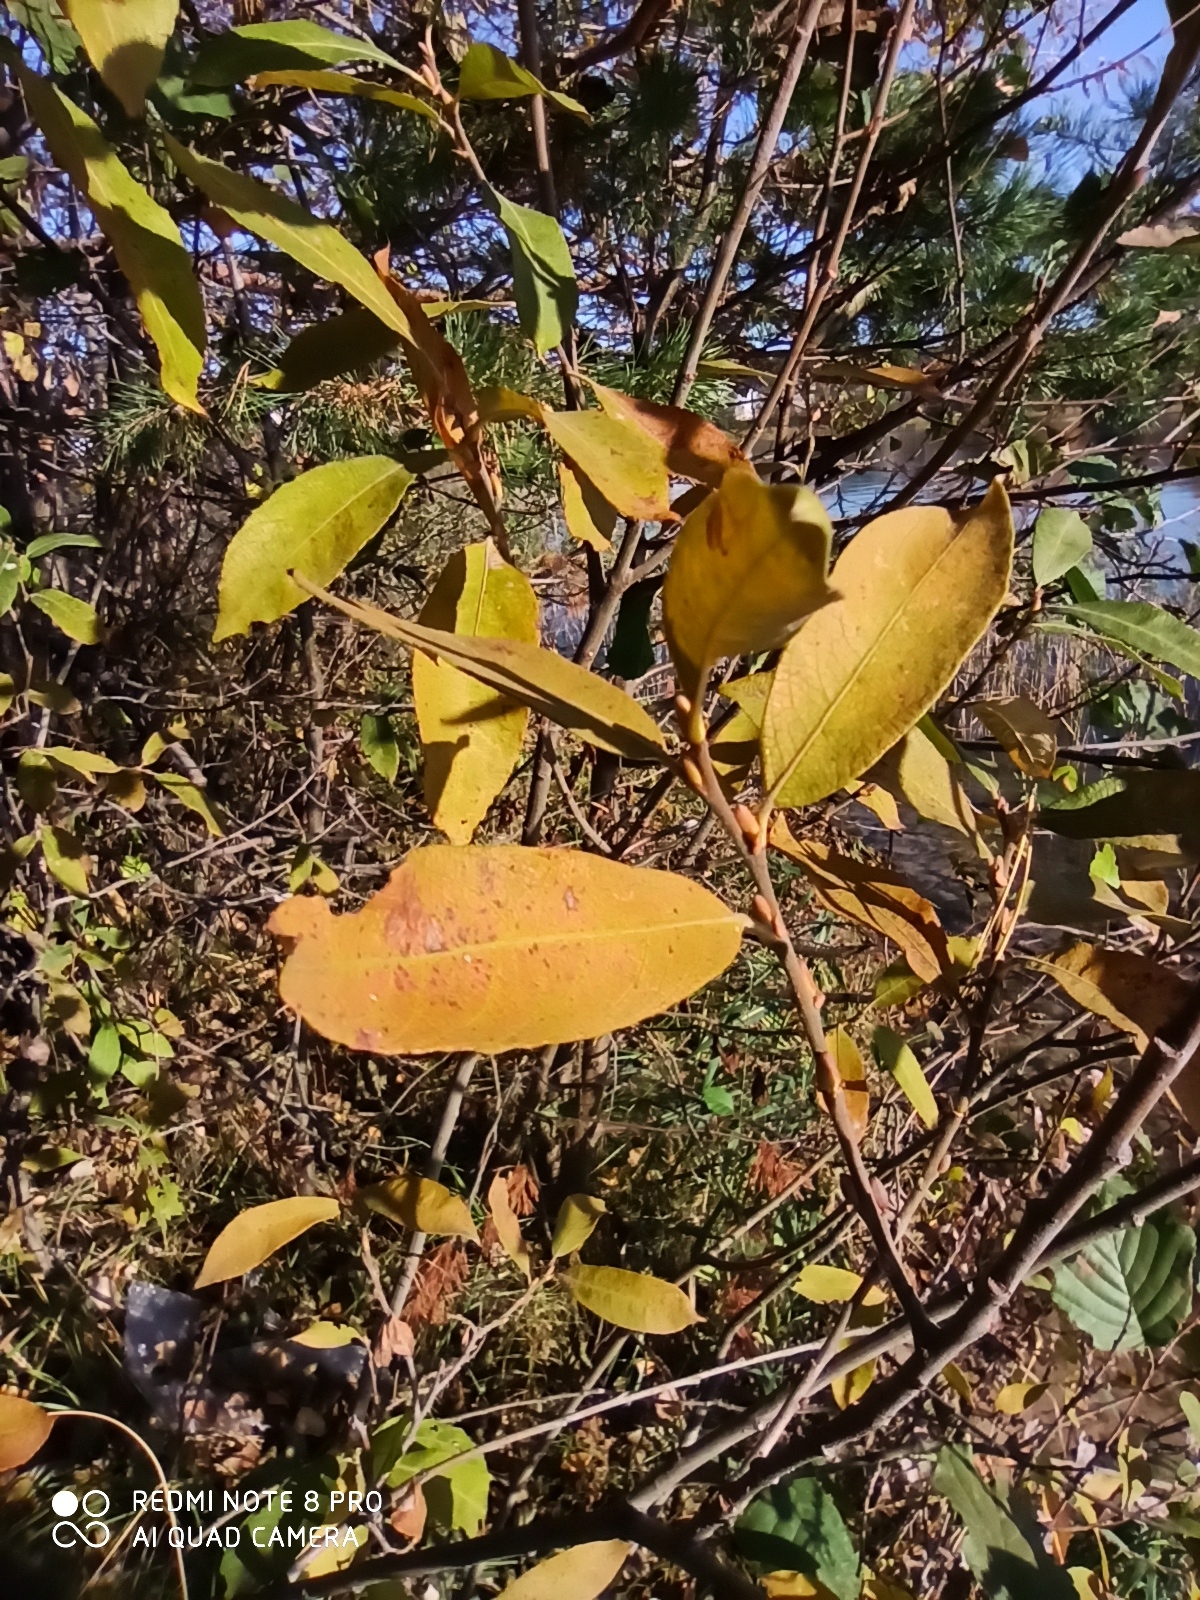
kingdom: Plantae
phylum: Tracheophyta
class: Magnoliopsida
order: Malpighiales
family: Salicaceae
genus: Salix
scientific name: Salix caprea
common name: Goat willow
